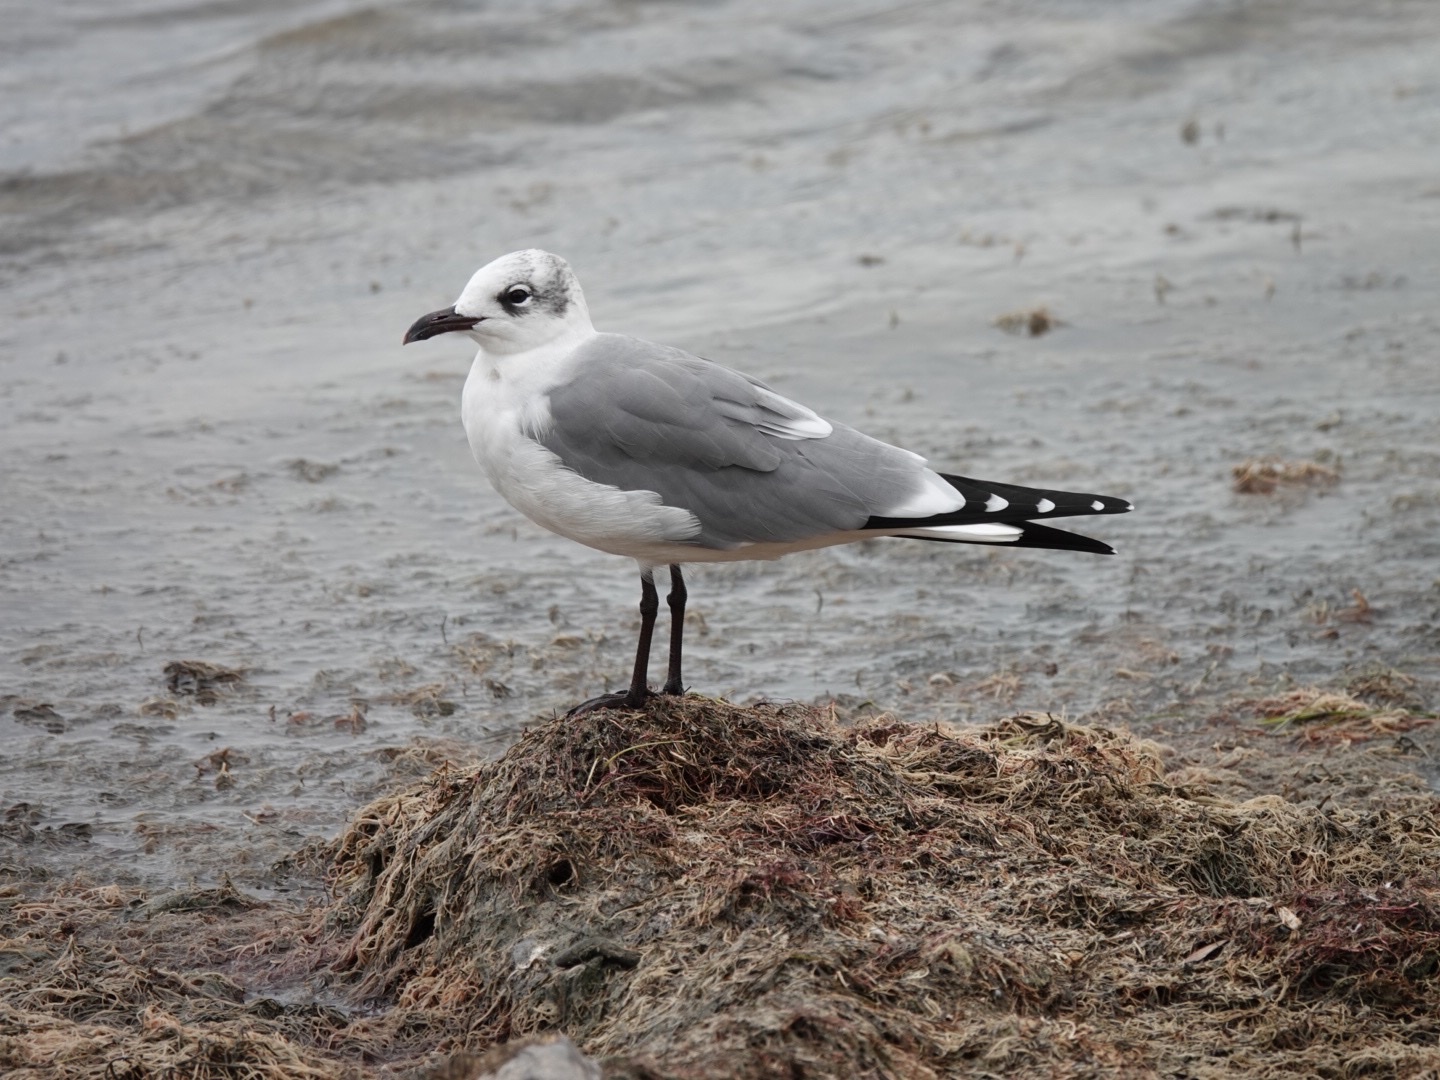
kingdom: Animalia
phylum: Chordata
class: Aves
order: Charadriiformes
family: Laridae
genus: Leucophaeus
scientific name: Leucophaeus atricilla
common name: Laughing gull
